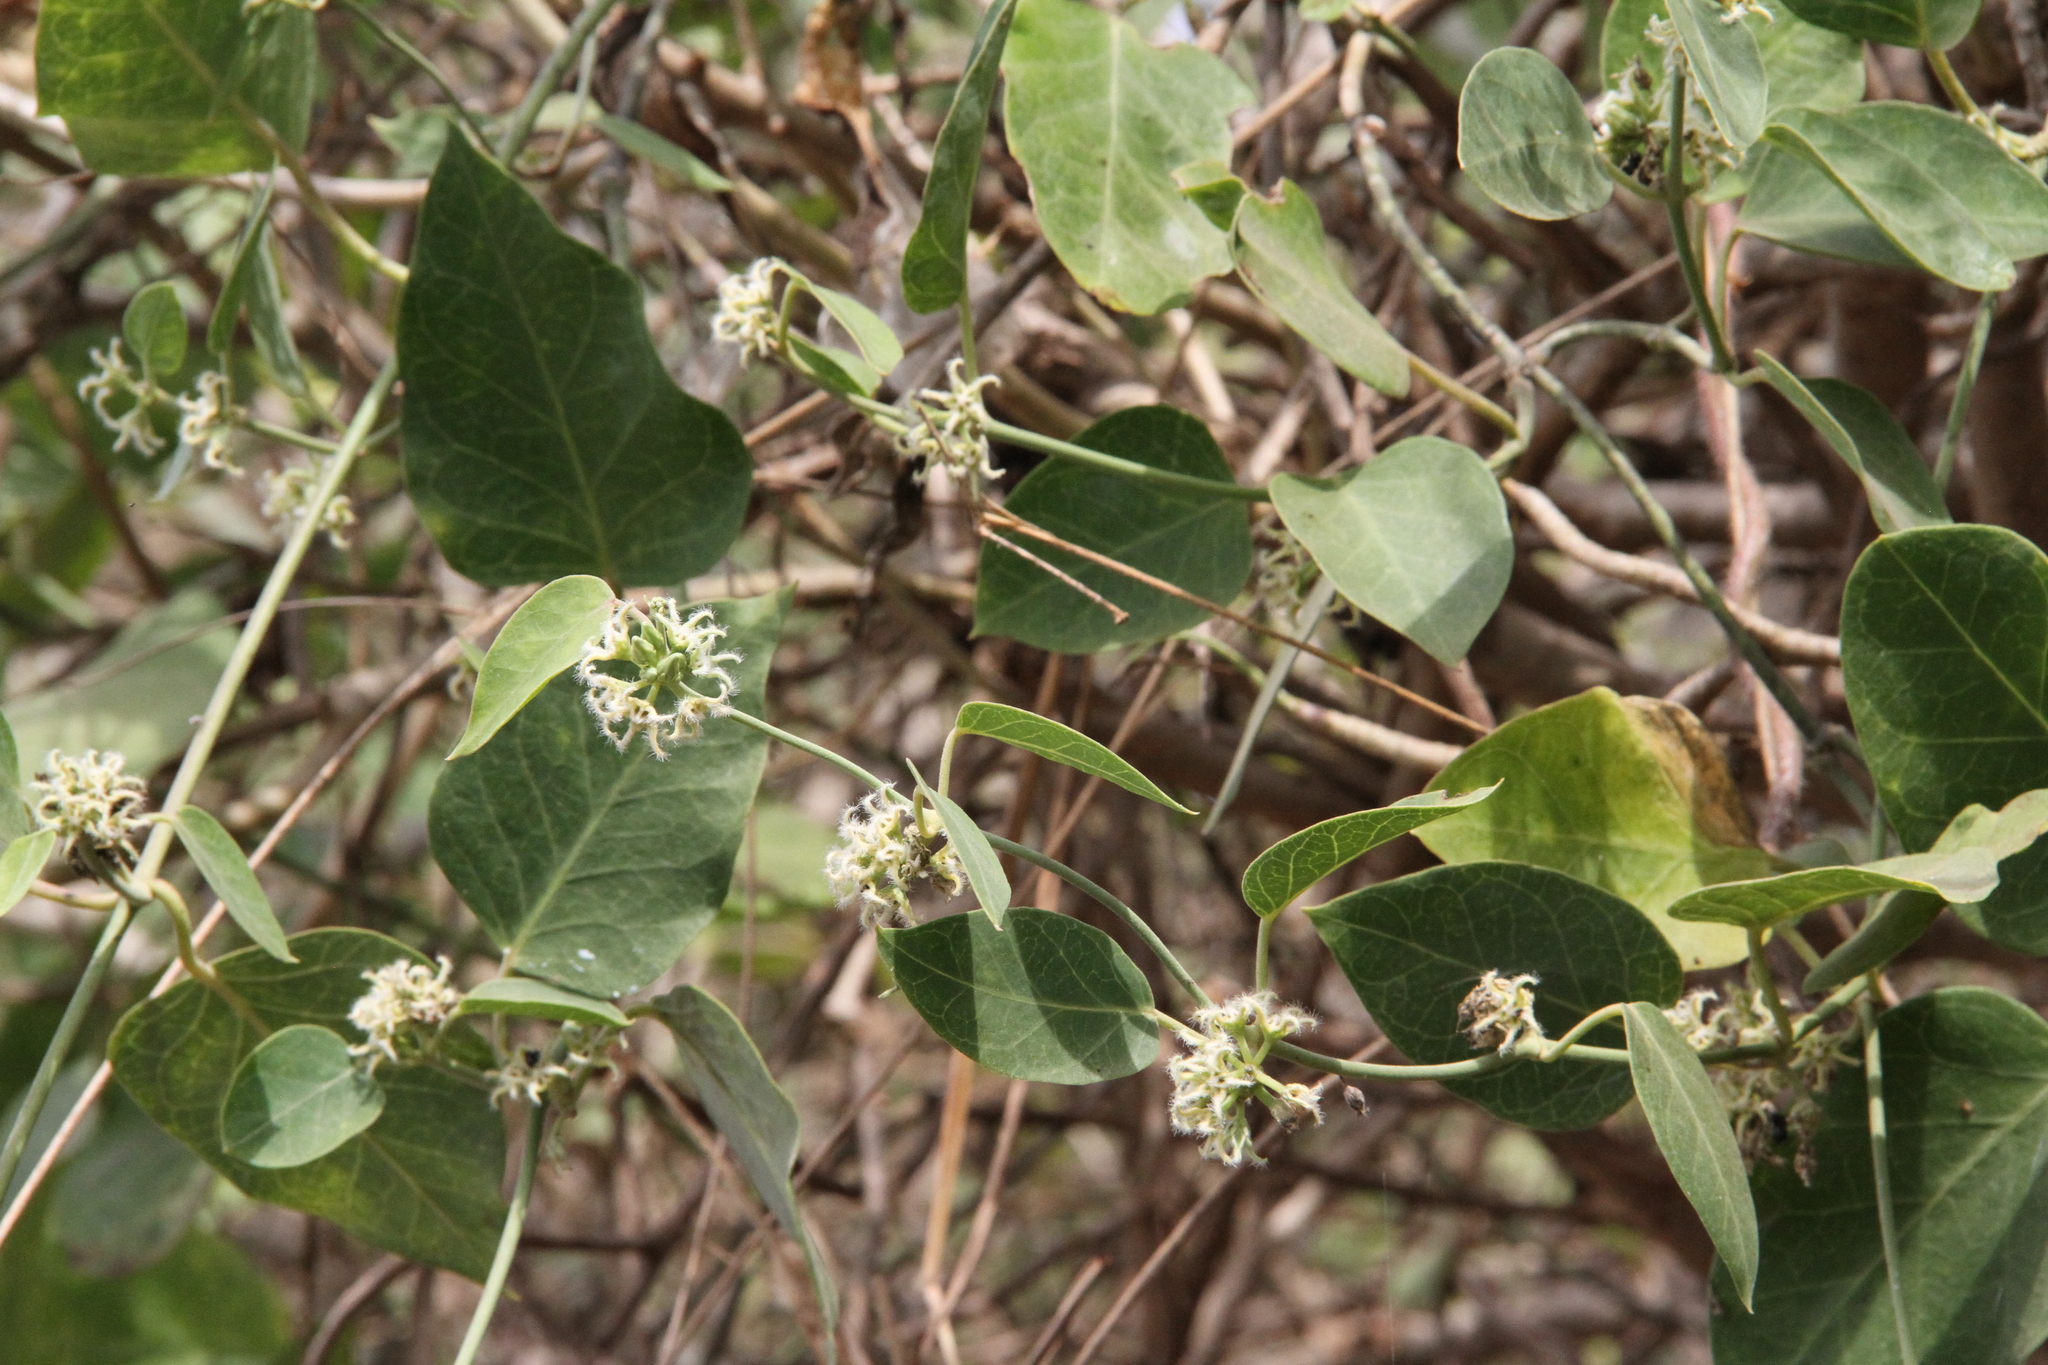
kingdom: Plantae
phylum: Tracheophyta
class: Magnoliopsida
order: Gentianales
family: Apocynaceae
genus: Leptadenia
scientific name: Leptadenia lanceolata
